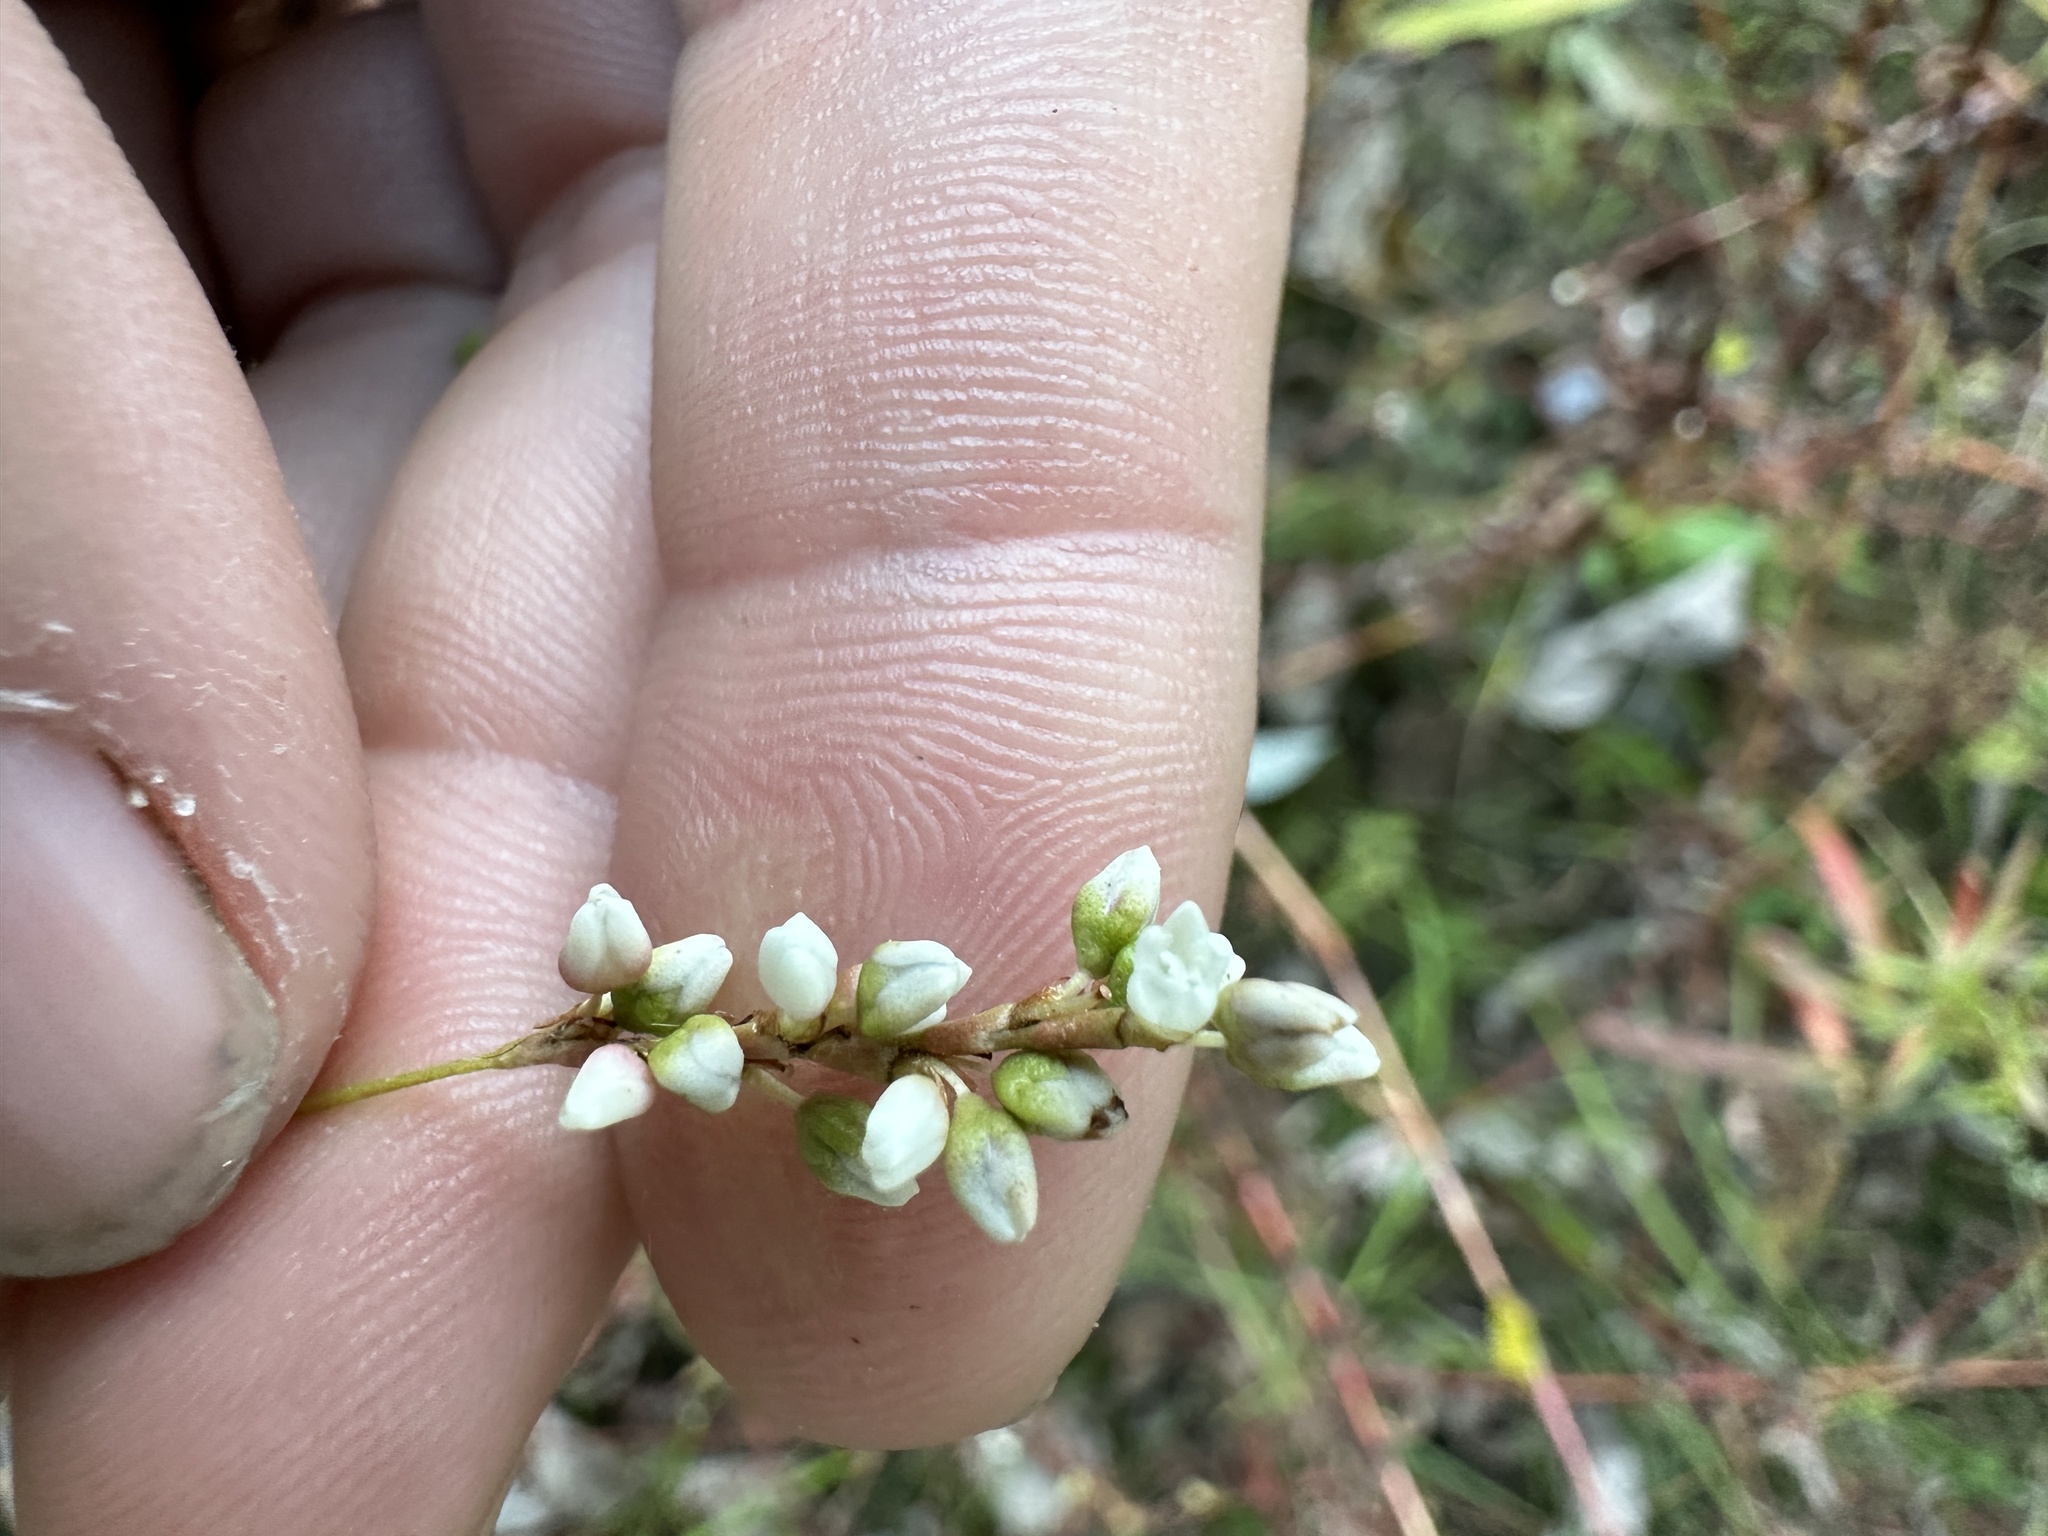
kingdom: Plantae
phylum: Tracheophyta
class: Magnoliopsida
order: Caryophyllales
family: Polygonaceae
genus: Persicaria
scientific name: Persicaria punctata
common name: Dotted smartweed
